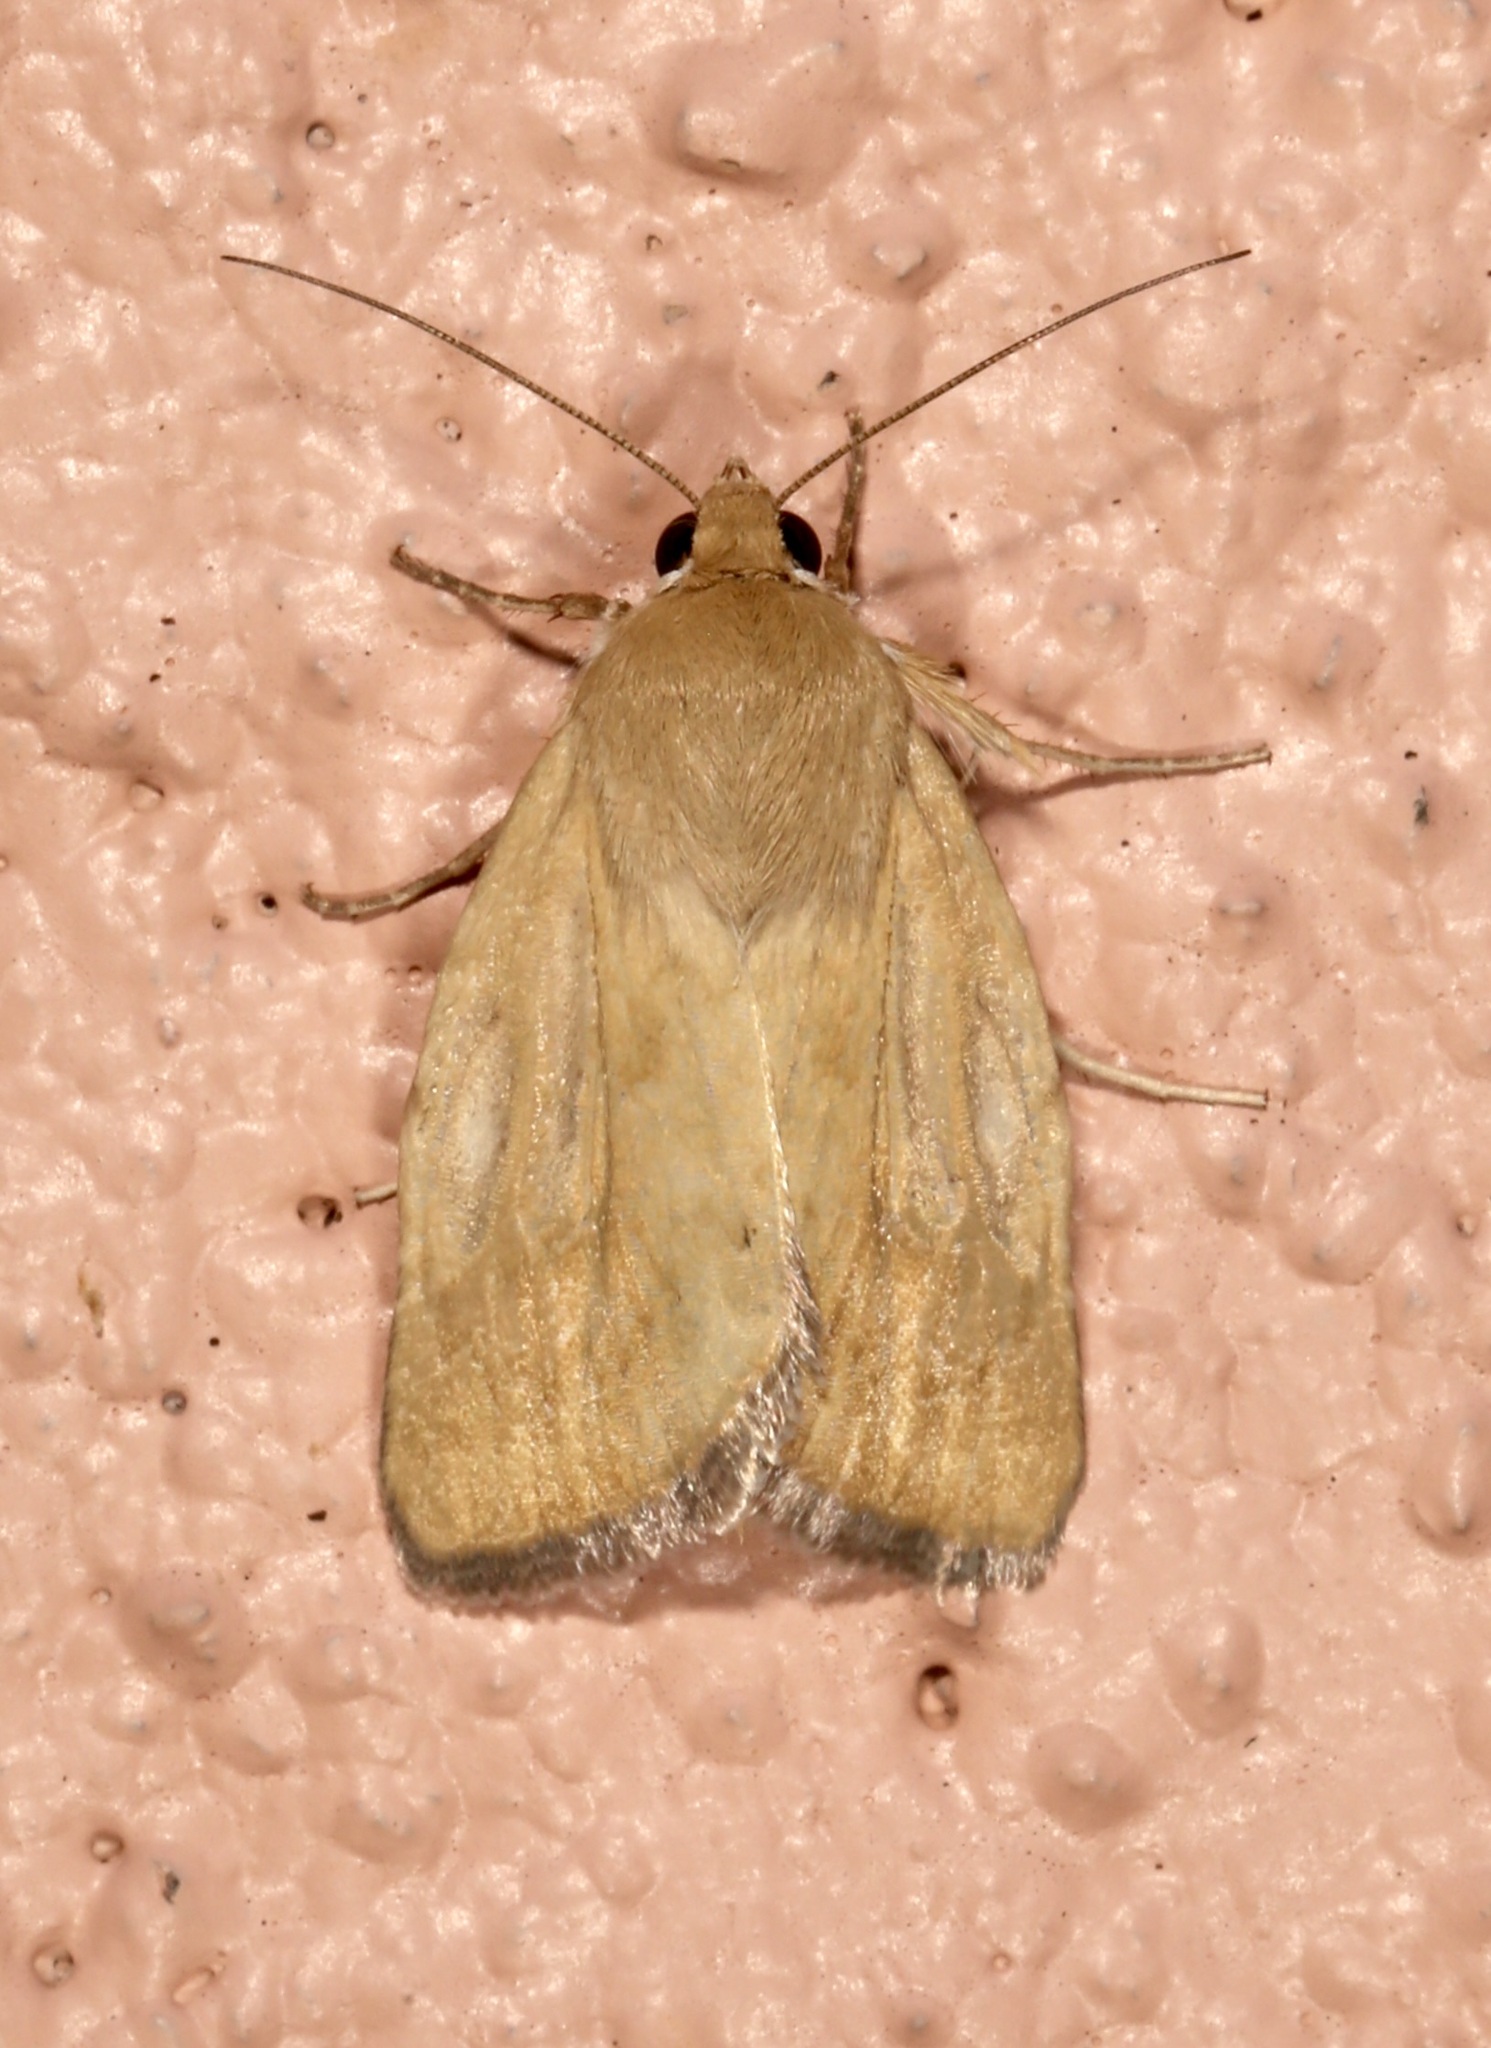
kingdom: Animalia
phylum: Arthropoda
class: Insecta
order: Lepidoptera
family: Noctuidae
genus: Heliocheilus
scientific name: Heliocheilus paradoxus
